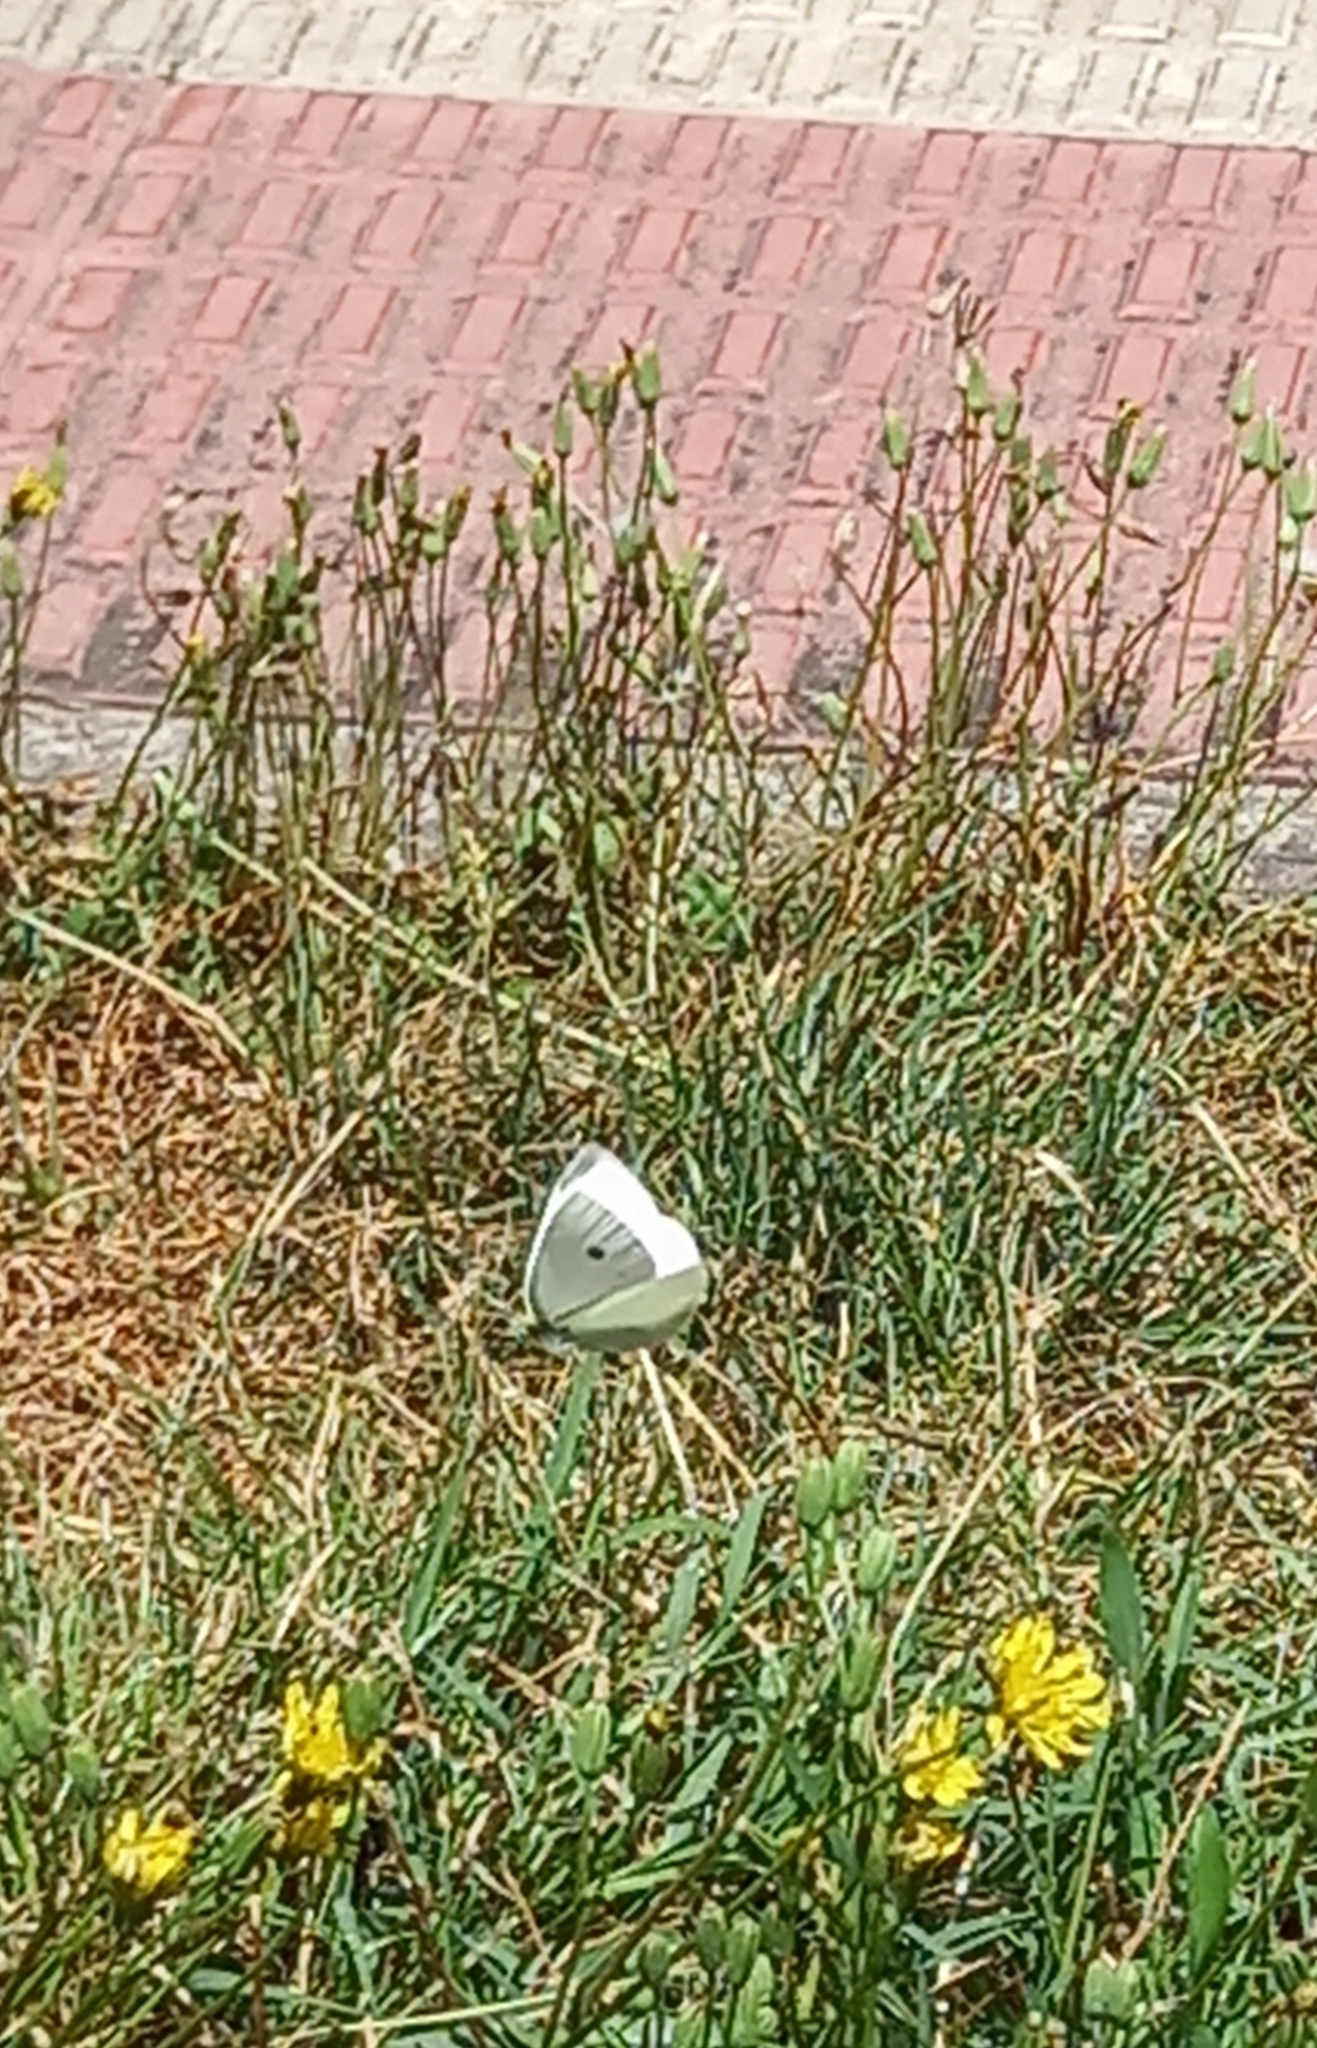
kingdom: Animalia
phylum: Arthropoda
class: Insecta
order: Lepidoptera
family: Pieridae
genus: Pieris
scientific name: Pieris rapae
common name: Small white
